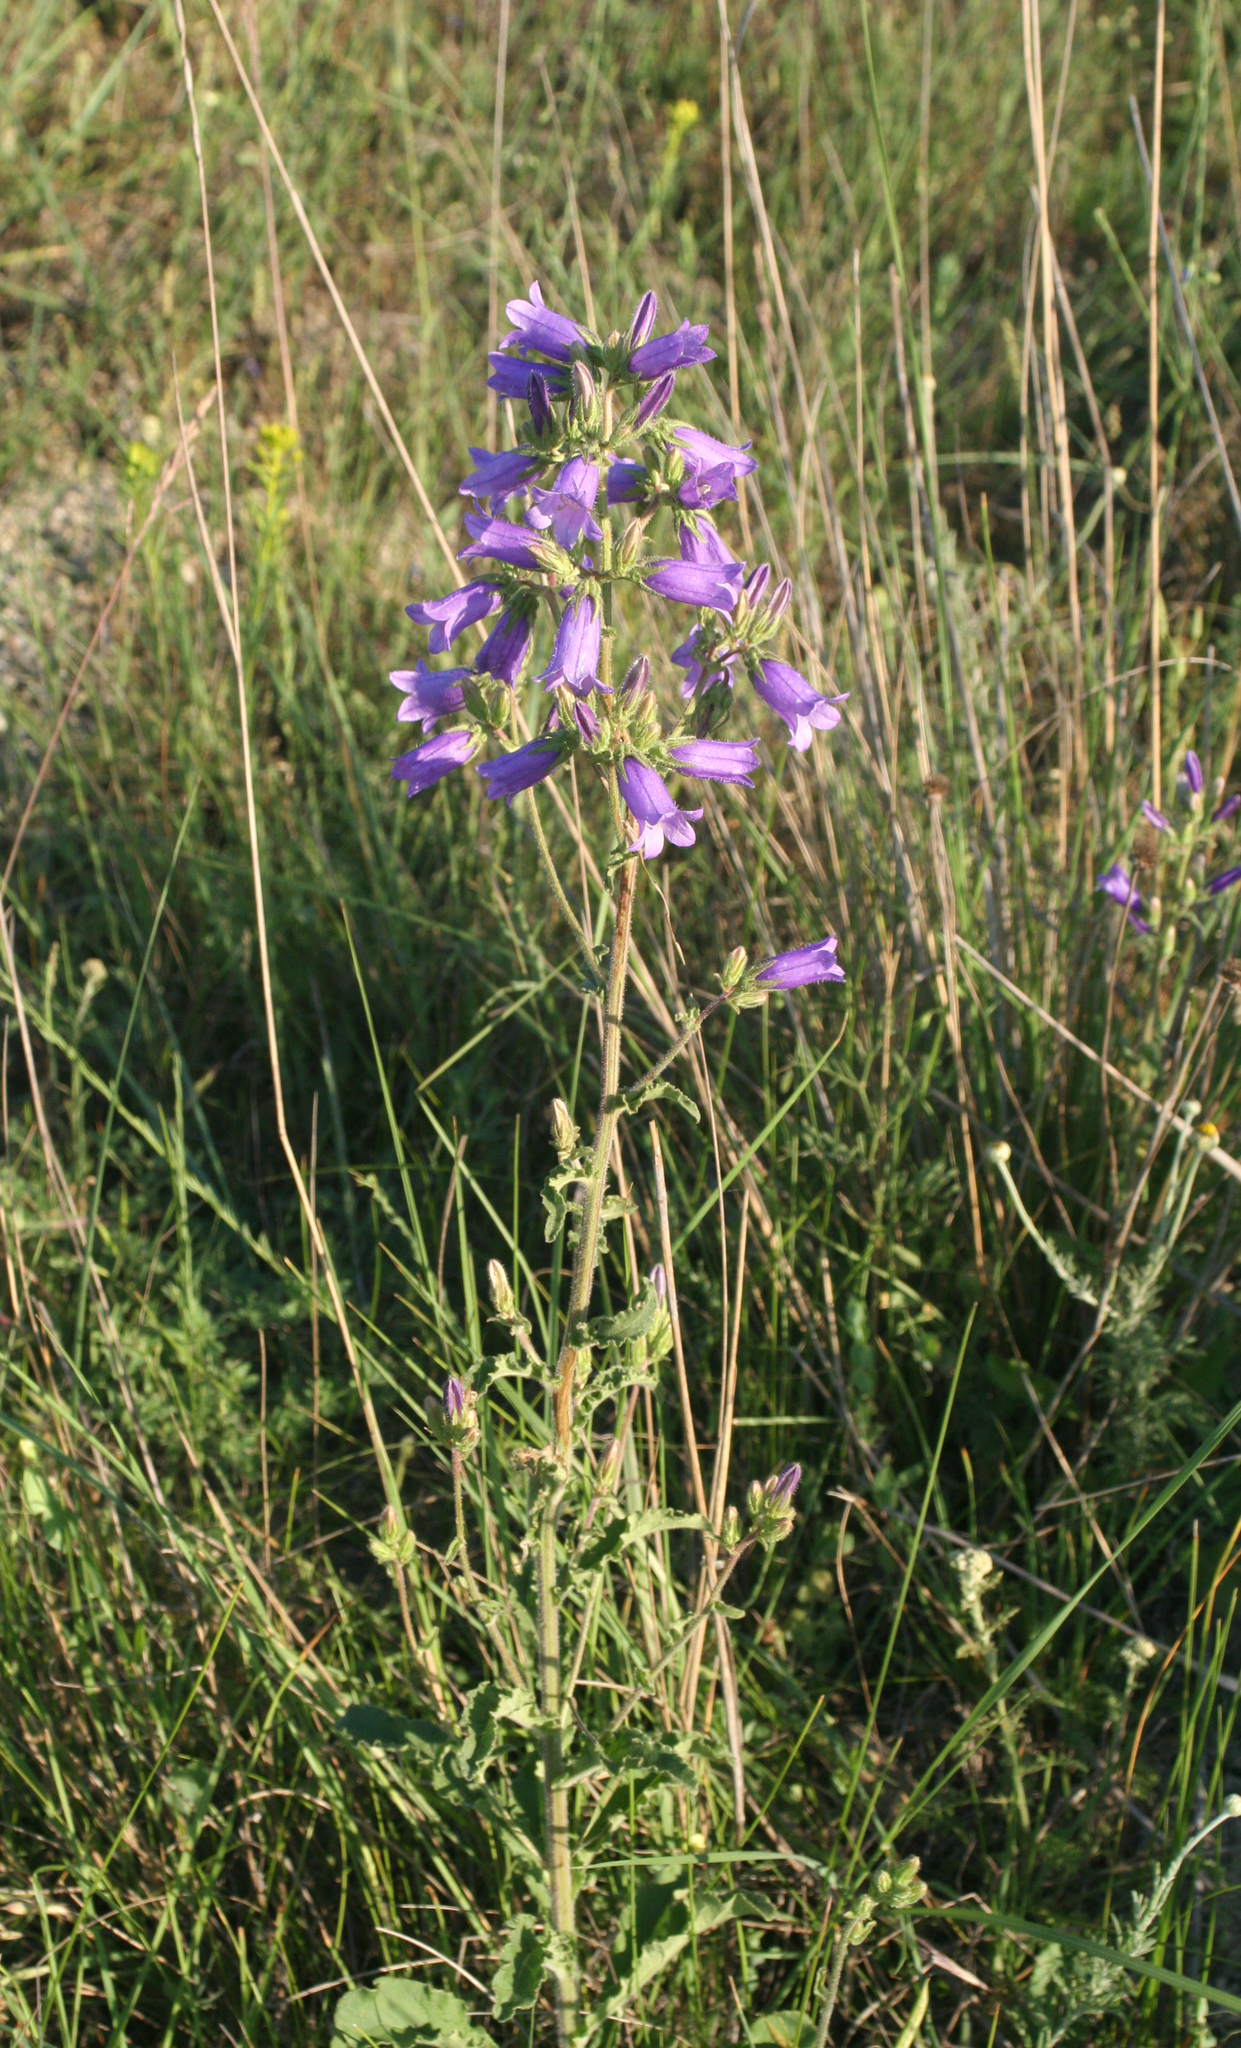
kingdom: Plantae
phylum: Tracheophyta
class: Magnoliopsida
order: Asterales
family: Campanulaceae
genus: Campanula
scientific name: Campanula sibirica
